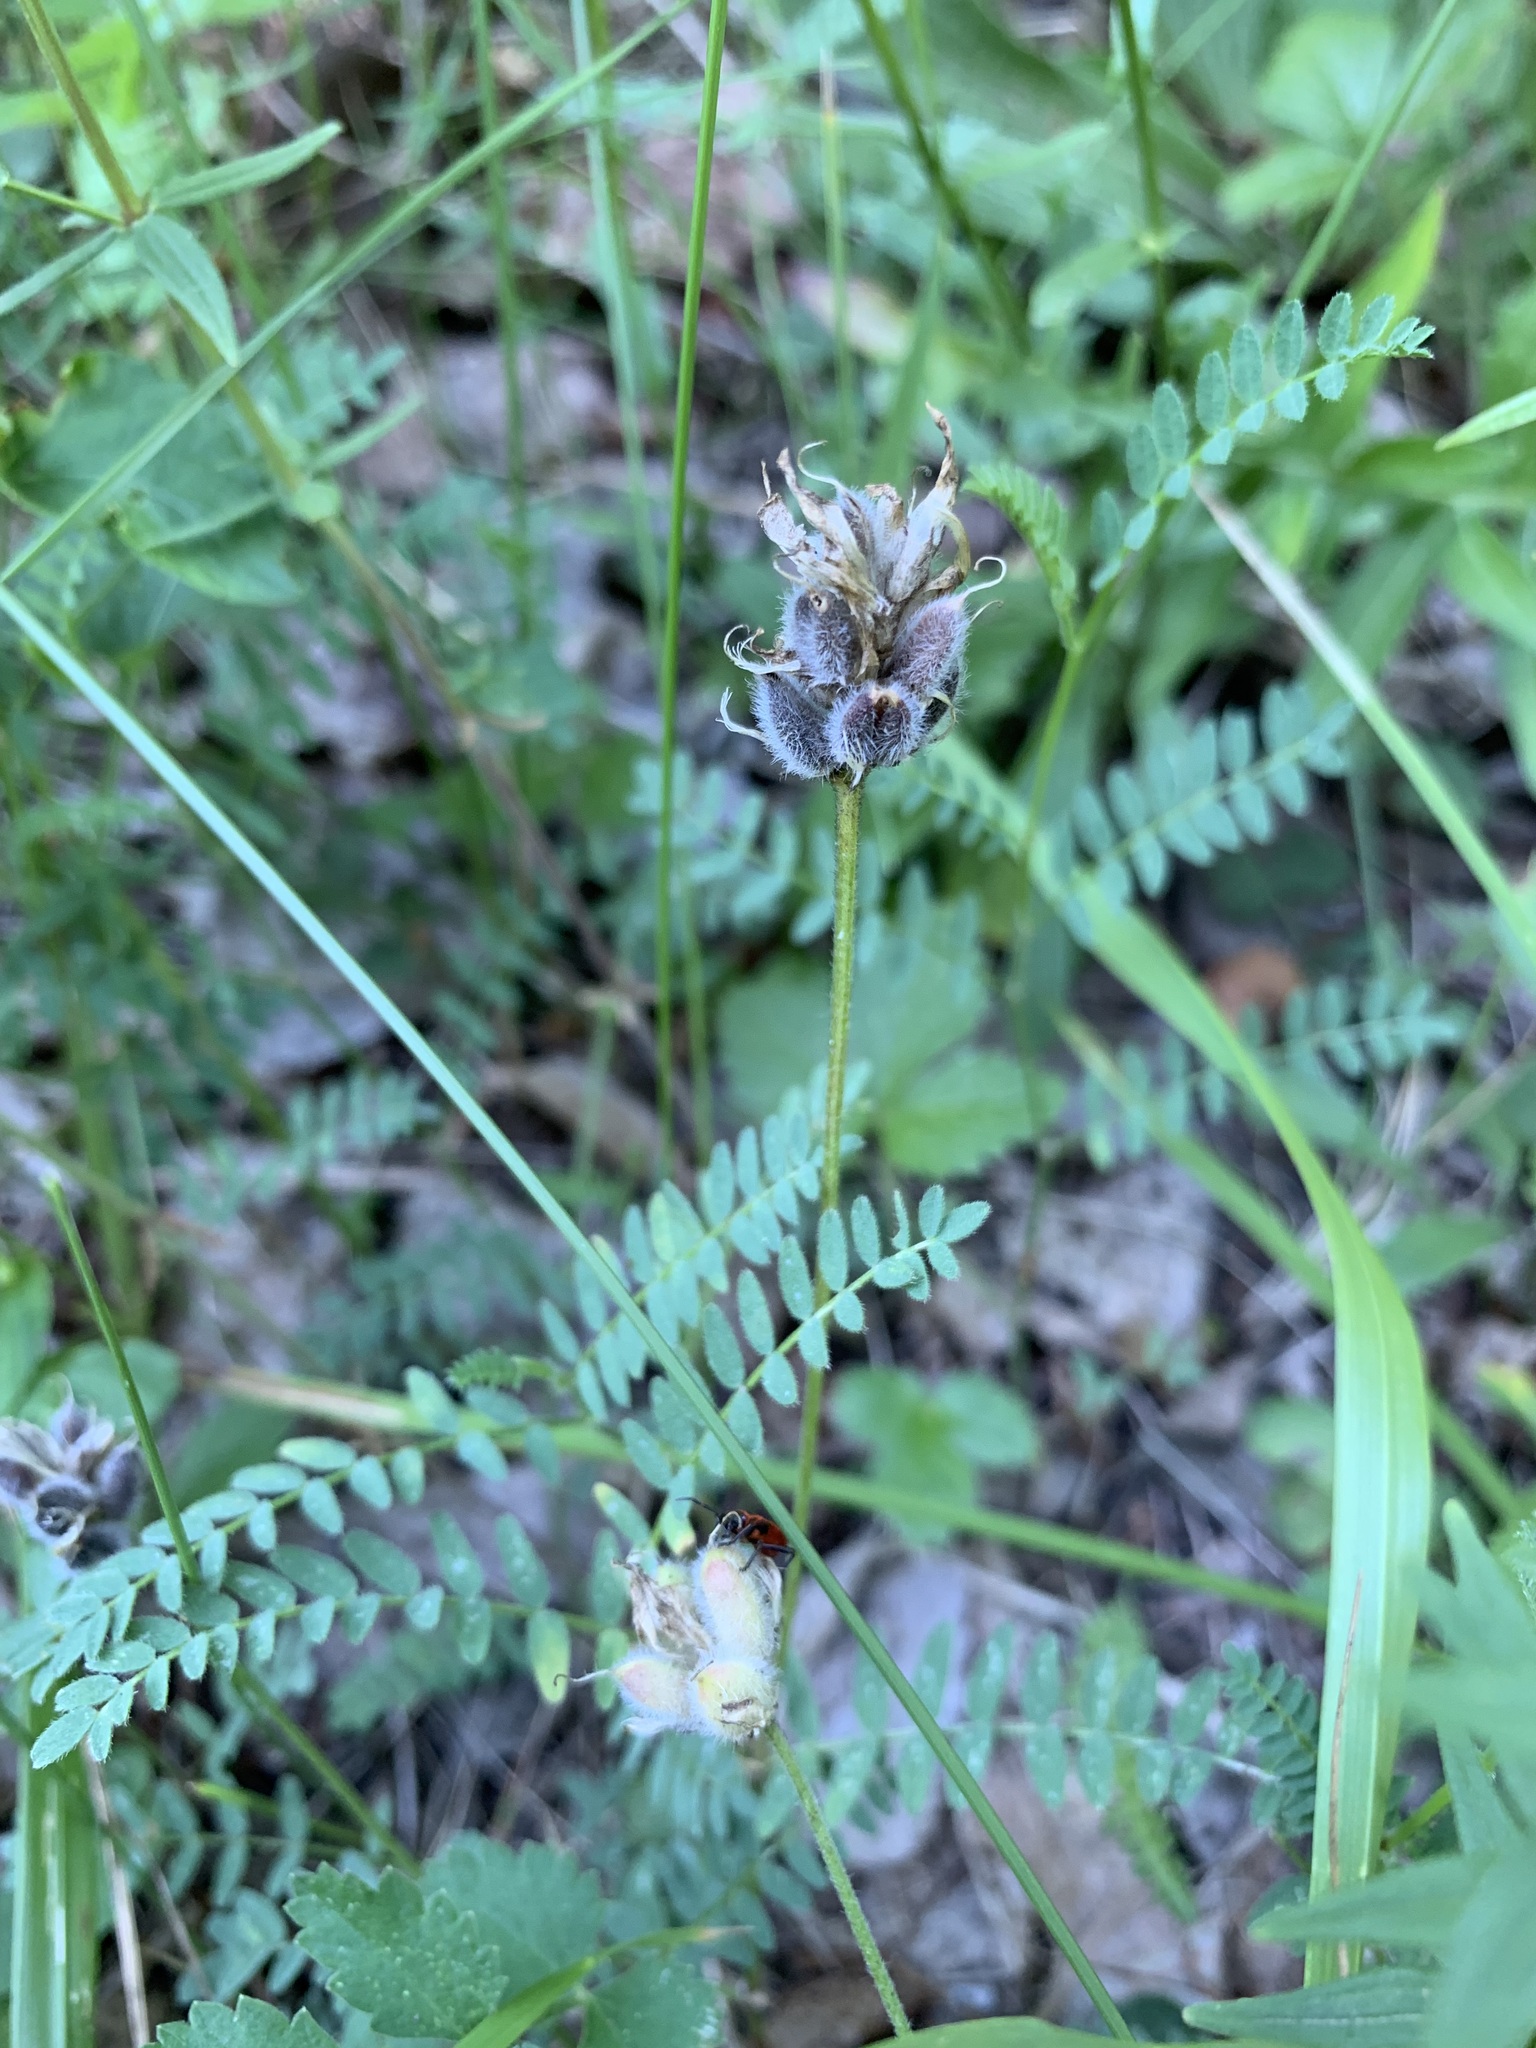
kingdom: Plantae
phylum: Tracheophyta
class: Magnoliopsida
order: Fabales
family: Fabaceae
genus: Astragalus
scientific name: Astragalus danicus
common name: Purple milk-vetch
